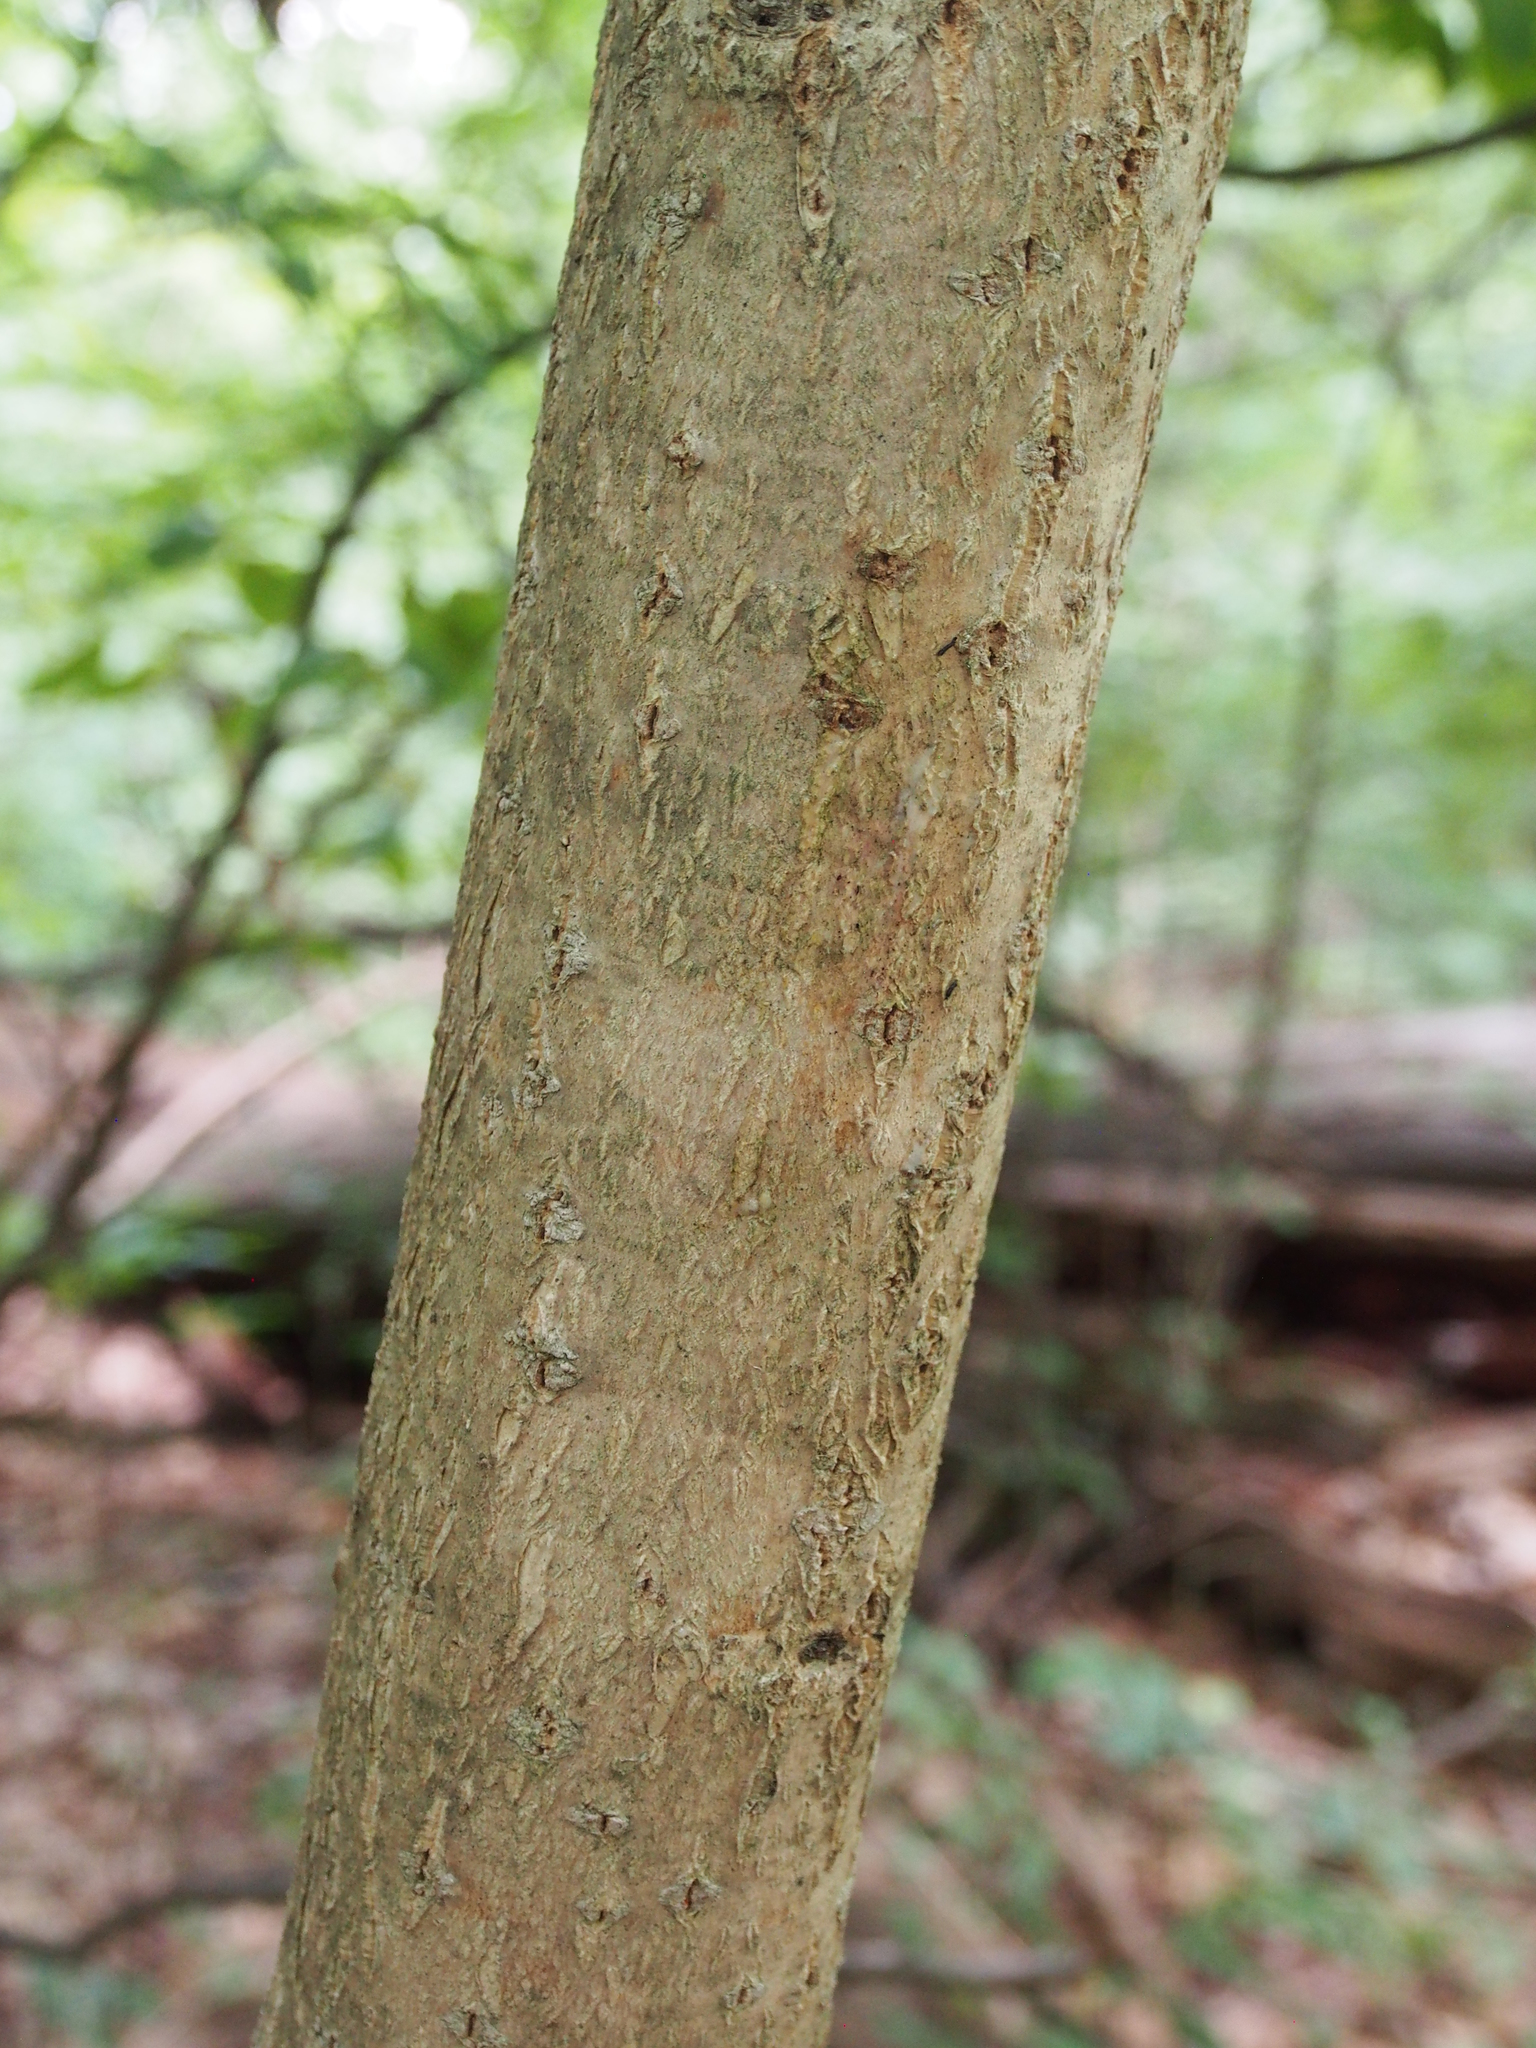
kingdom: Plantae
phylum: Tracheophyta
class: Magnoliopsida
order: Sapindales
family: Rutaceae
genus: Phellodendron
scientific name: Phellodendron amurense
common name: Amur corktree
